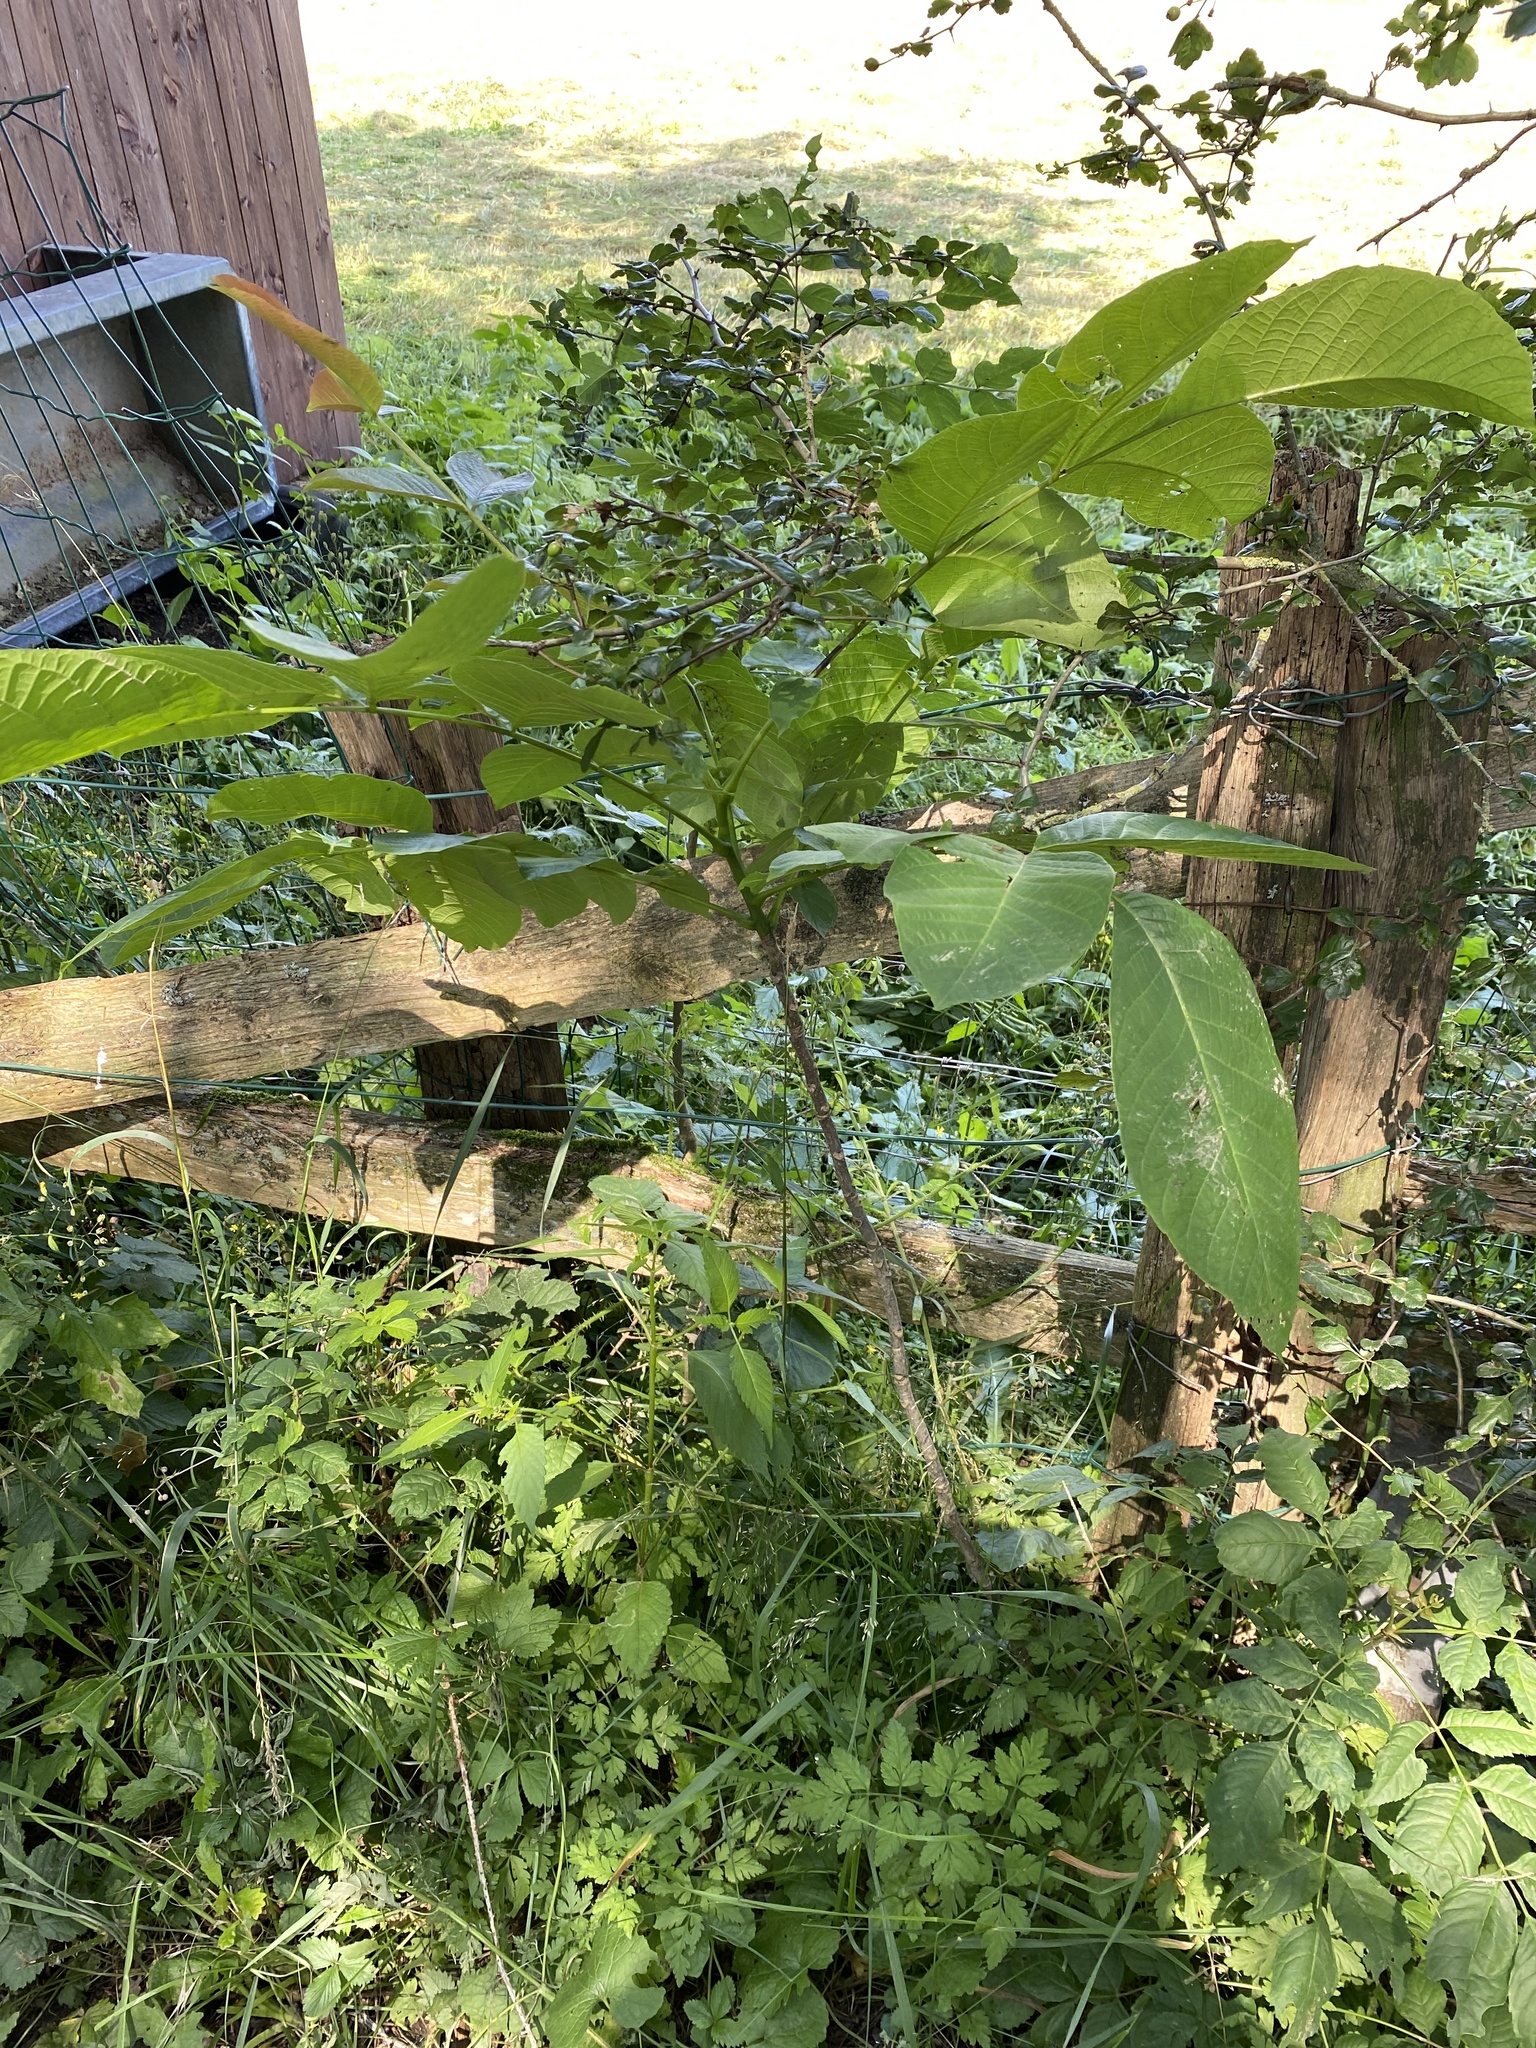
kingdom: Plantae
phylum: Tracheophyta
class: Magnoliopsida
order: Fagales
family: Juglandaceae
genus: Juglans
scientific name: Juglans regia
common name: Walnut
